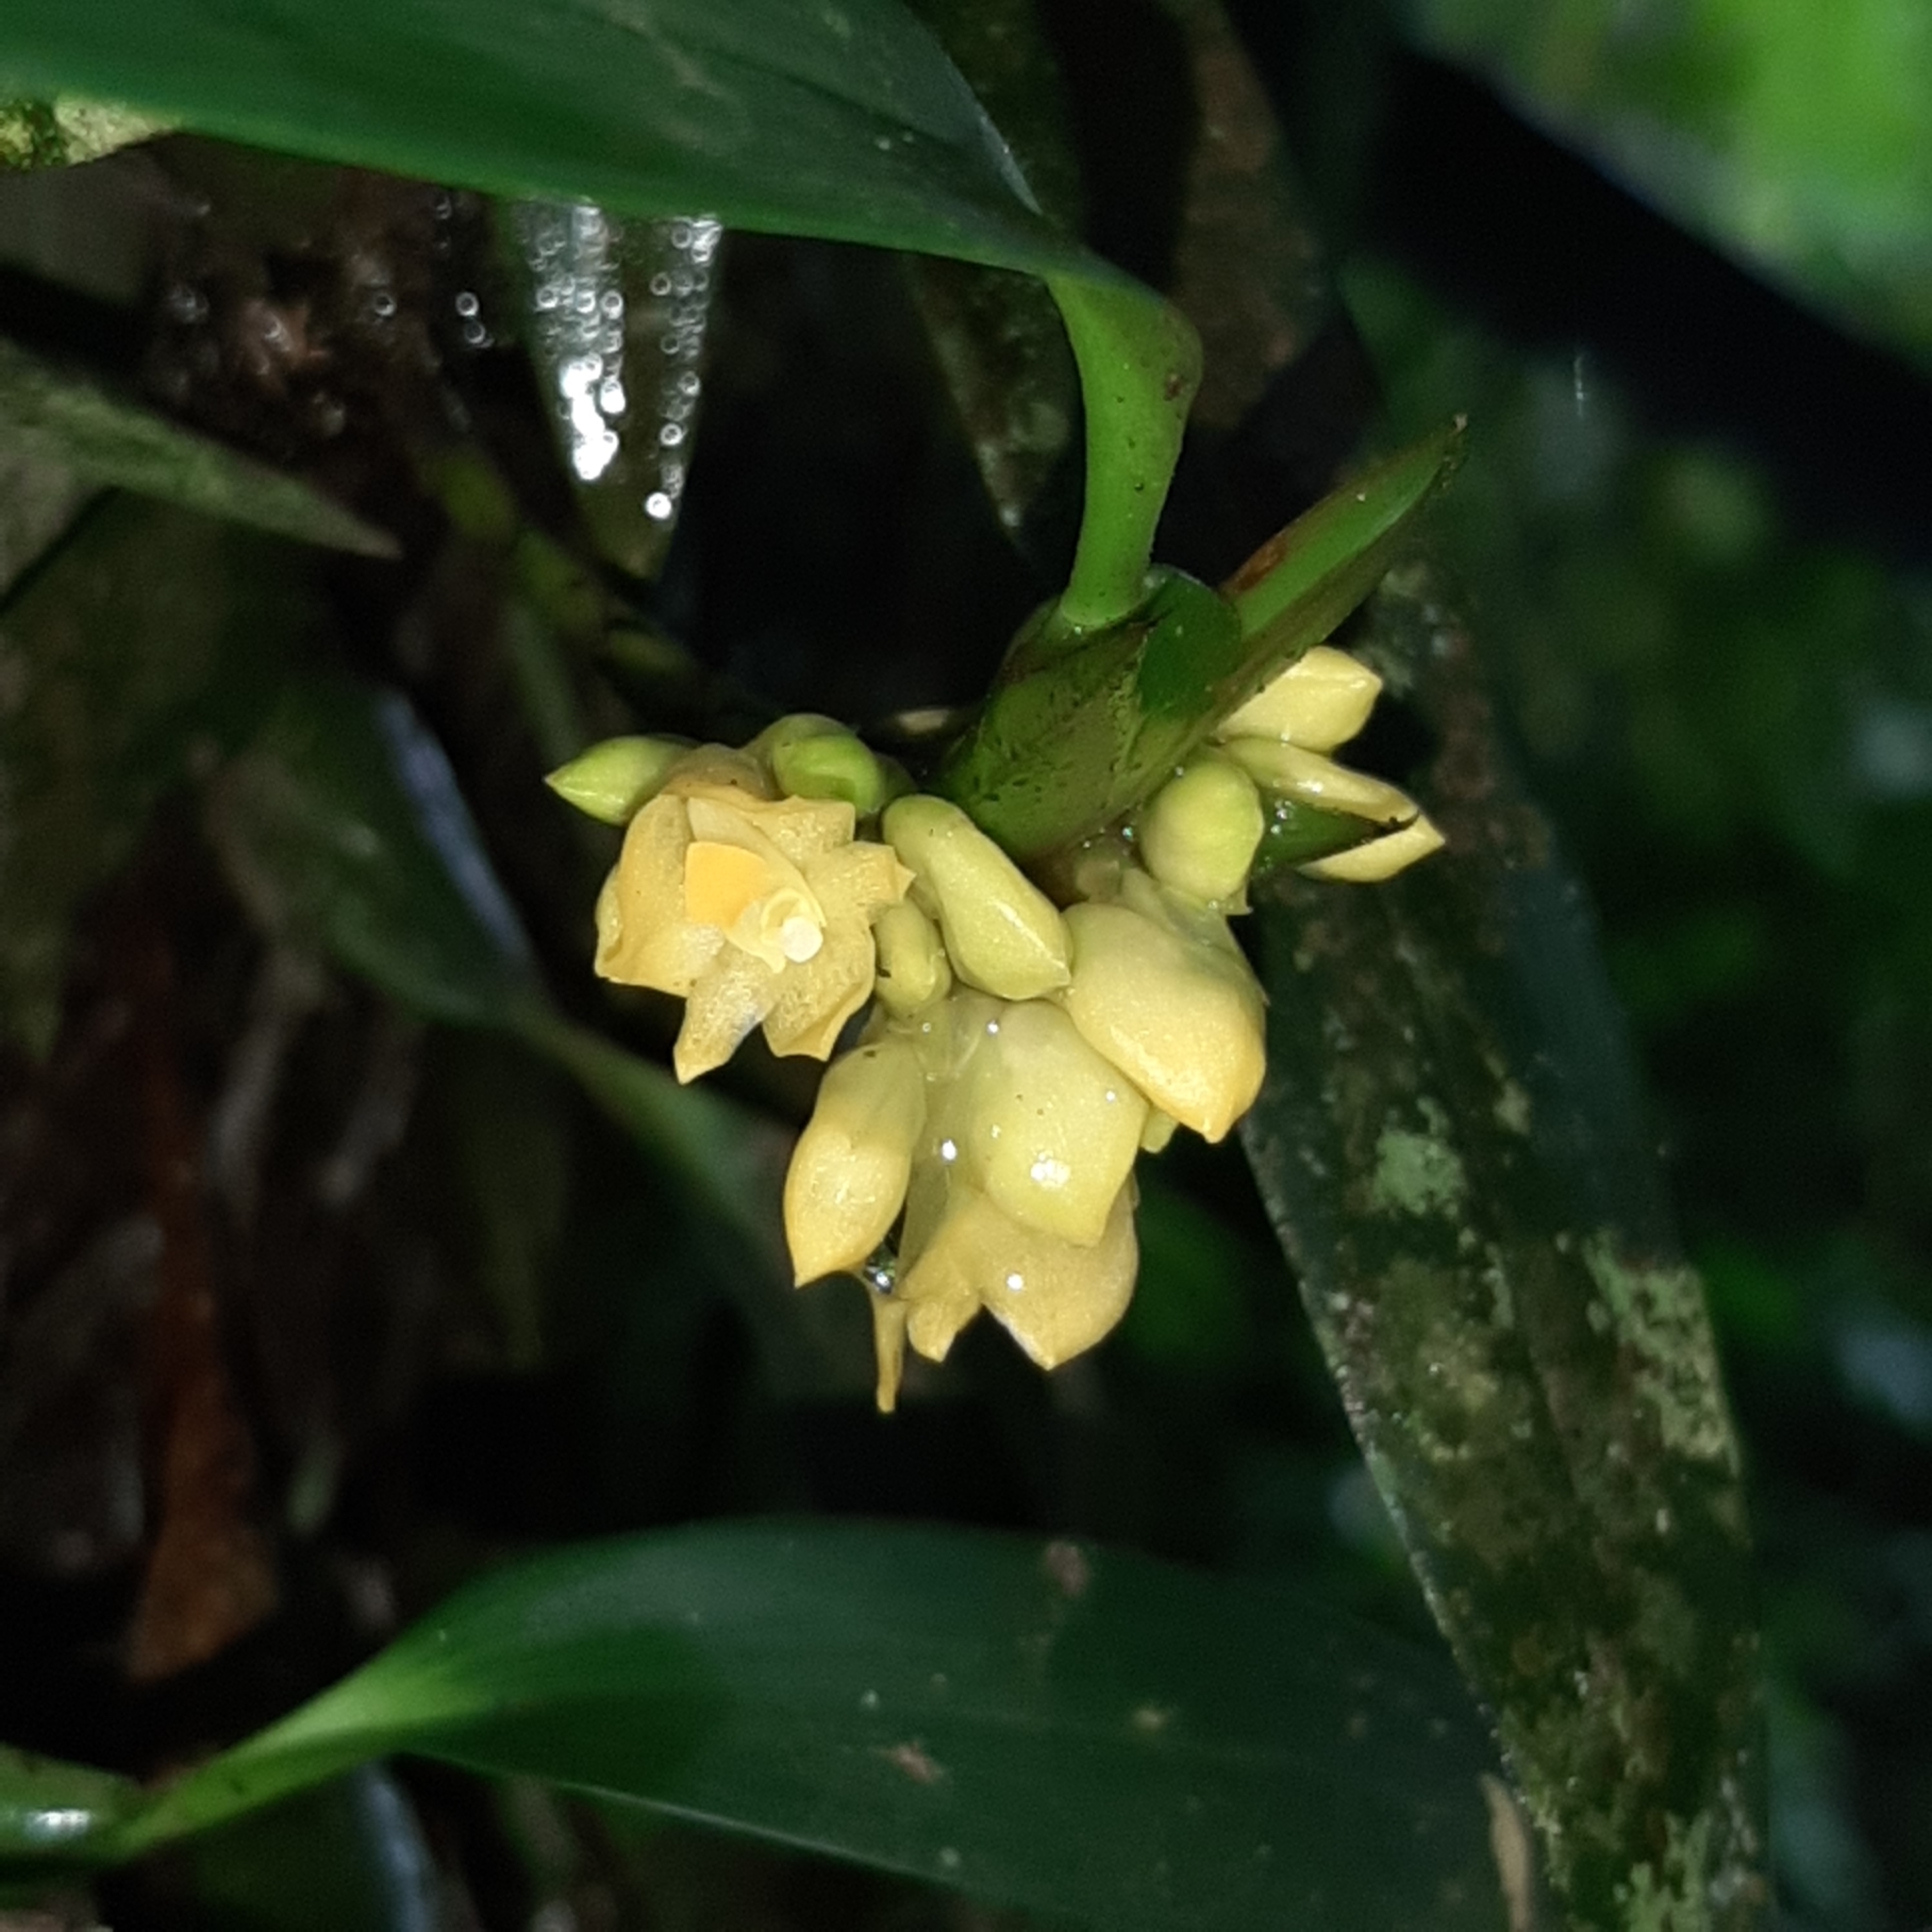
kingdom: Plantae
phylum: Tracheophyta
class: Liliopsida
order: Asparagales
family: Orchidaceae
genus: Maxillaria
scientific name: Maxillaria pseudoneglecta
